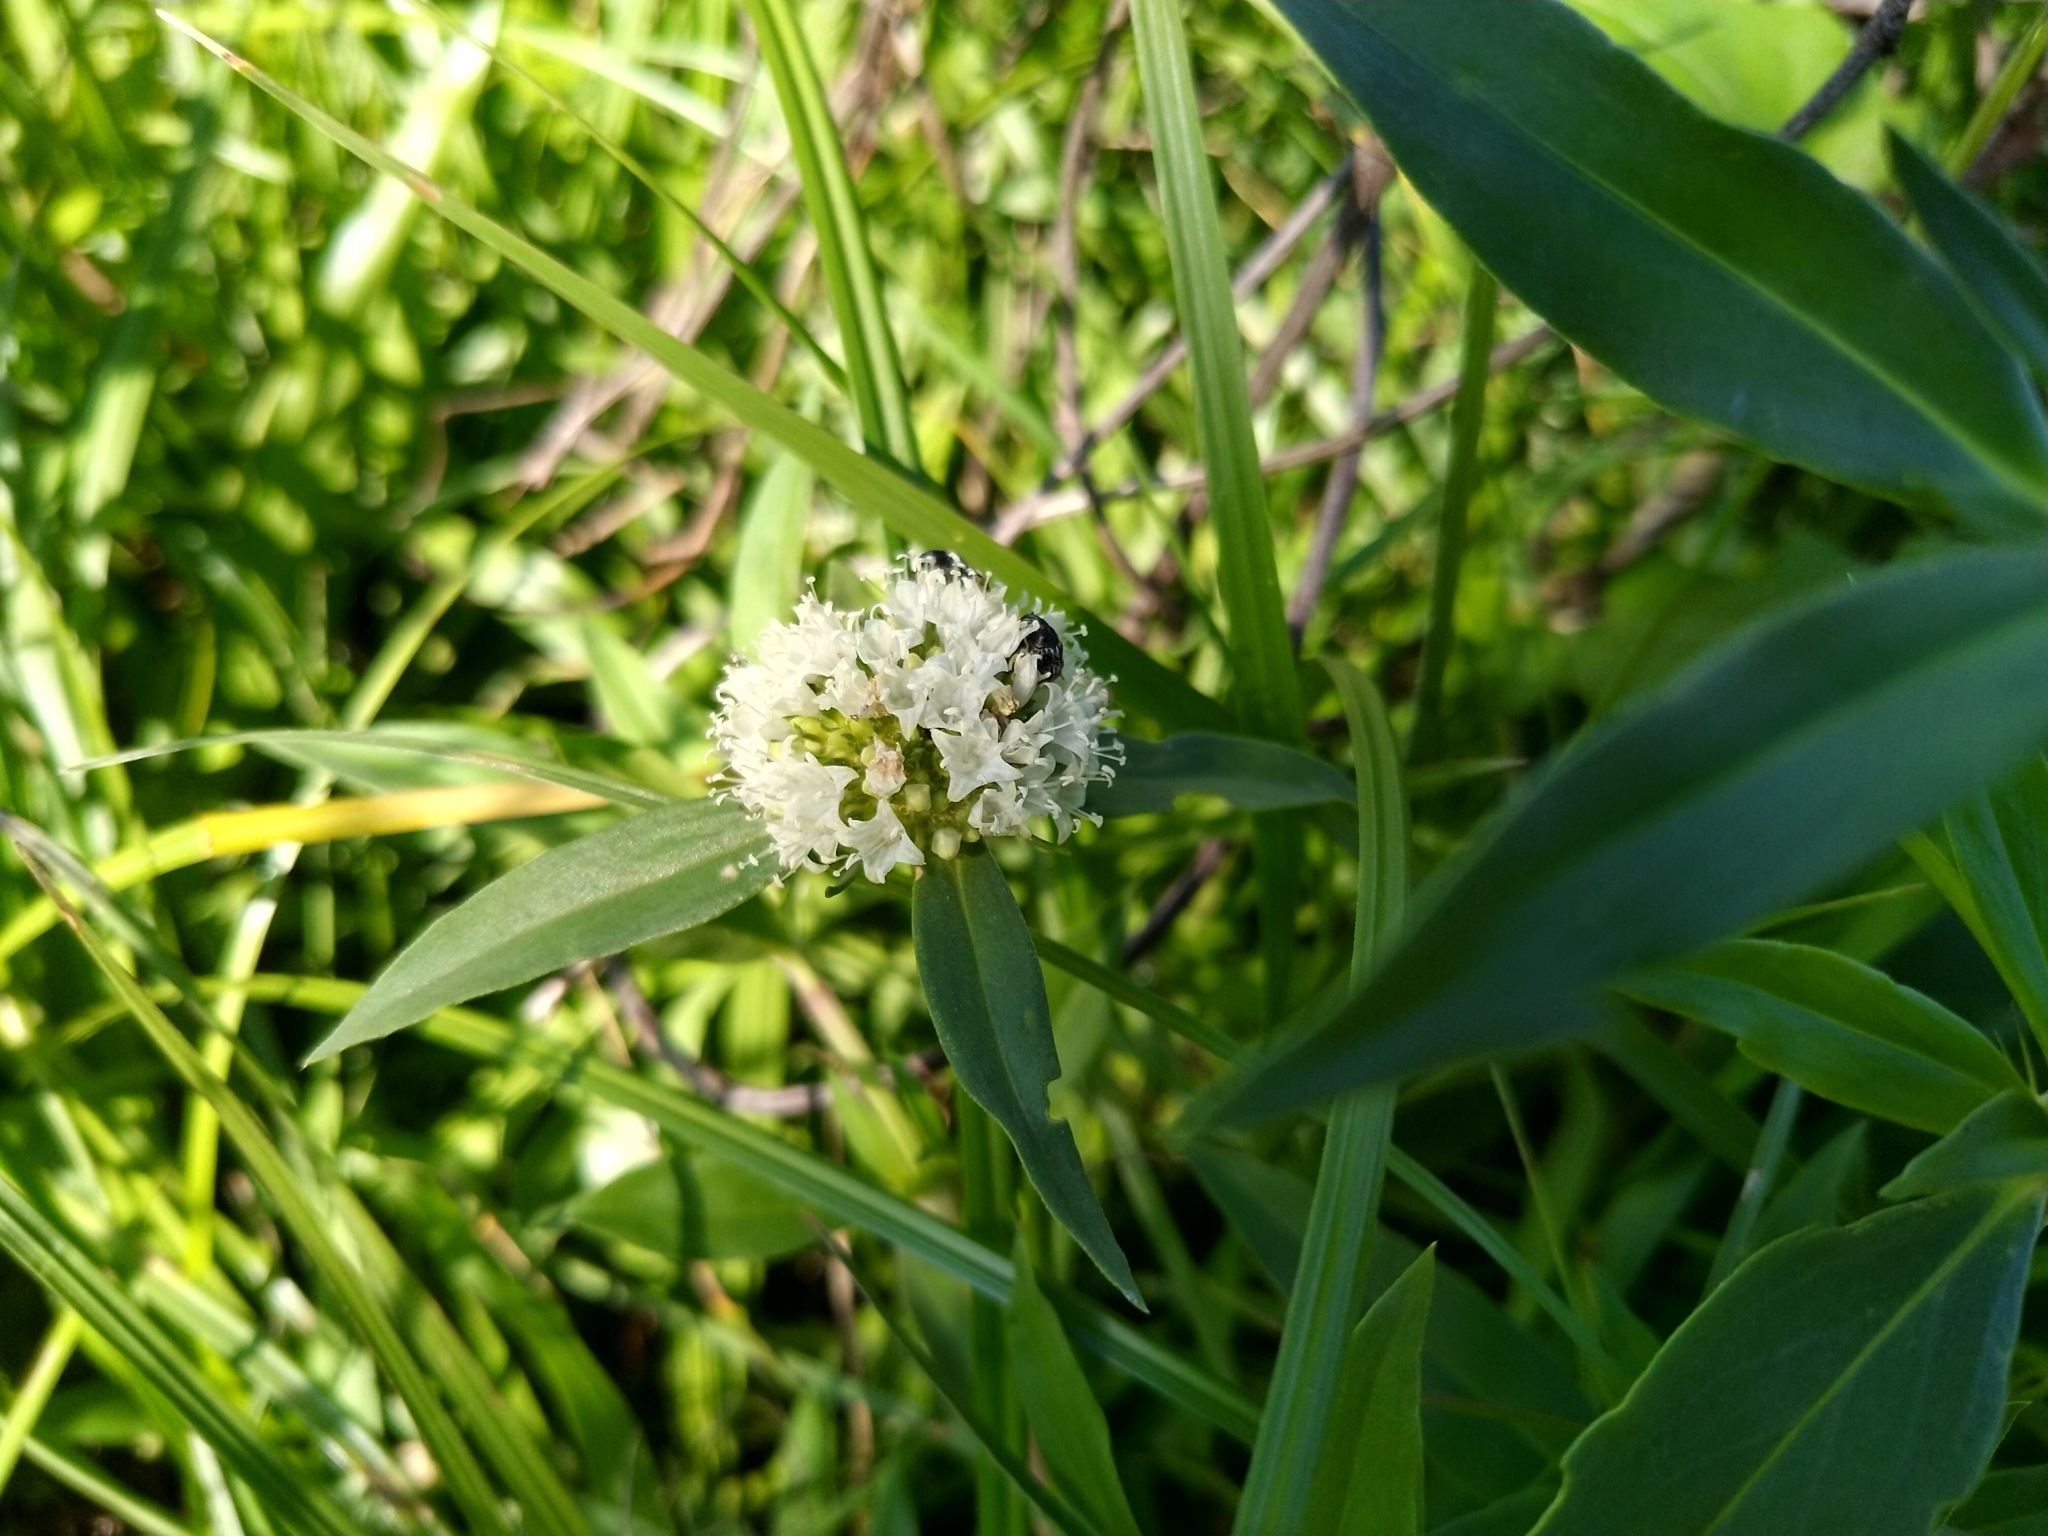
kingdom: Plantae
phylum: Tracheophyta
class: Magnoliopsida
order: Gentianales
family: Rubiaceae
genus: Spermacoce
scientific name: Spermacoce verticillata
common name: Shrubby false buttonweed
